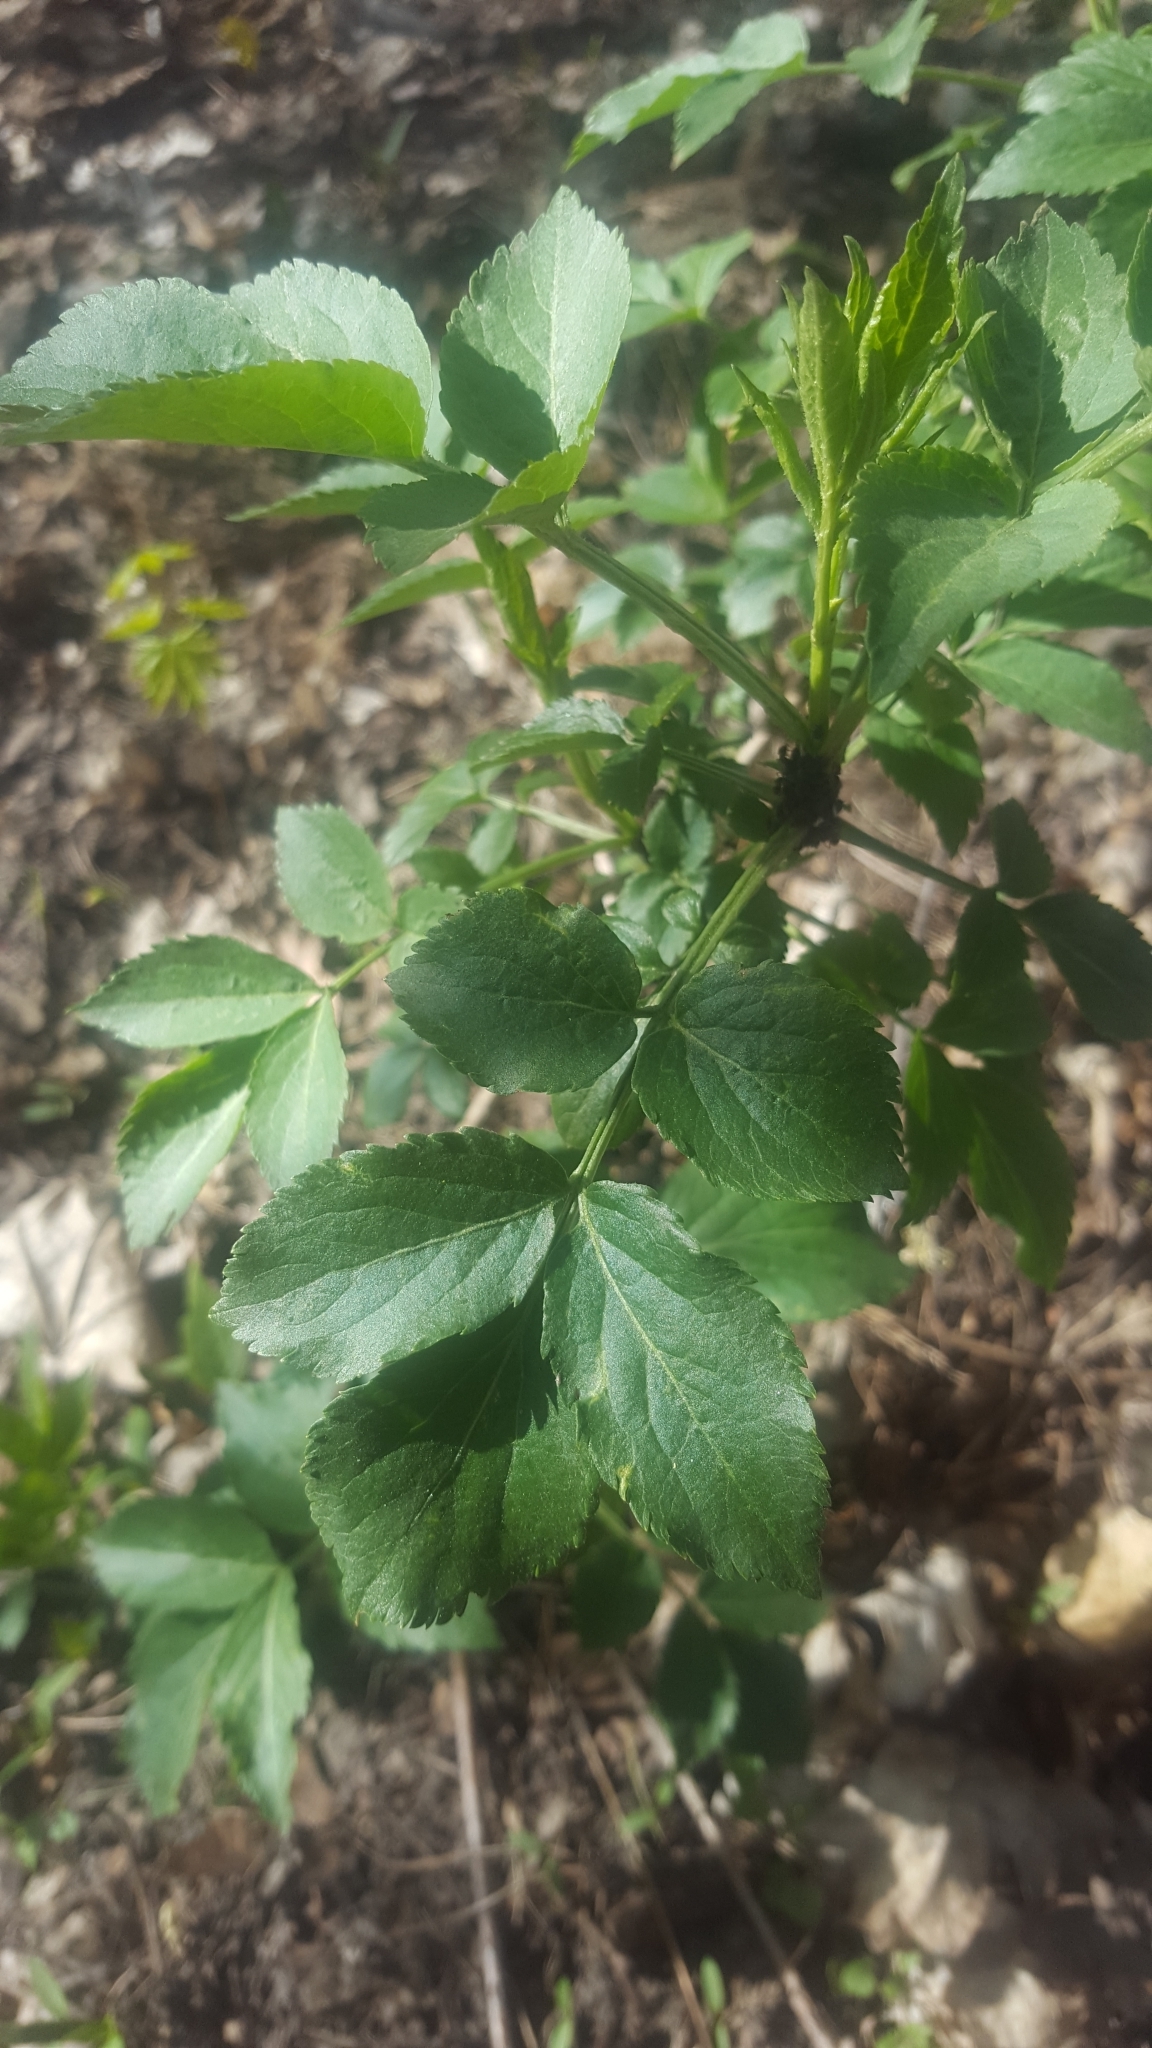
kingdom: Plantae
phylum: Tracheophyta
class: Magnoliopsida
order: Dipsacales
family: Viburnaceae
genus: Sambucus
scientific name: Sambucus nigra
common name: Elder
